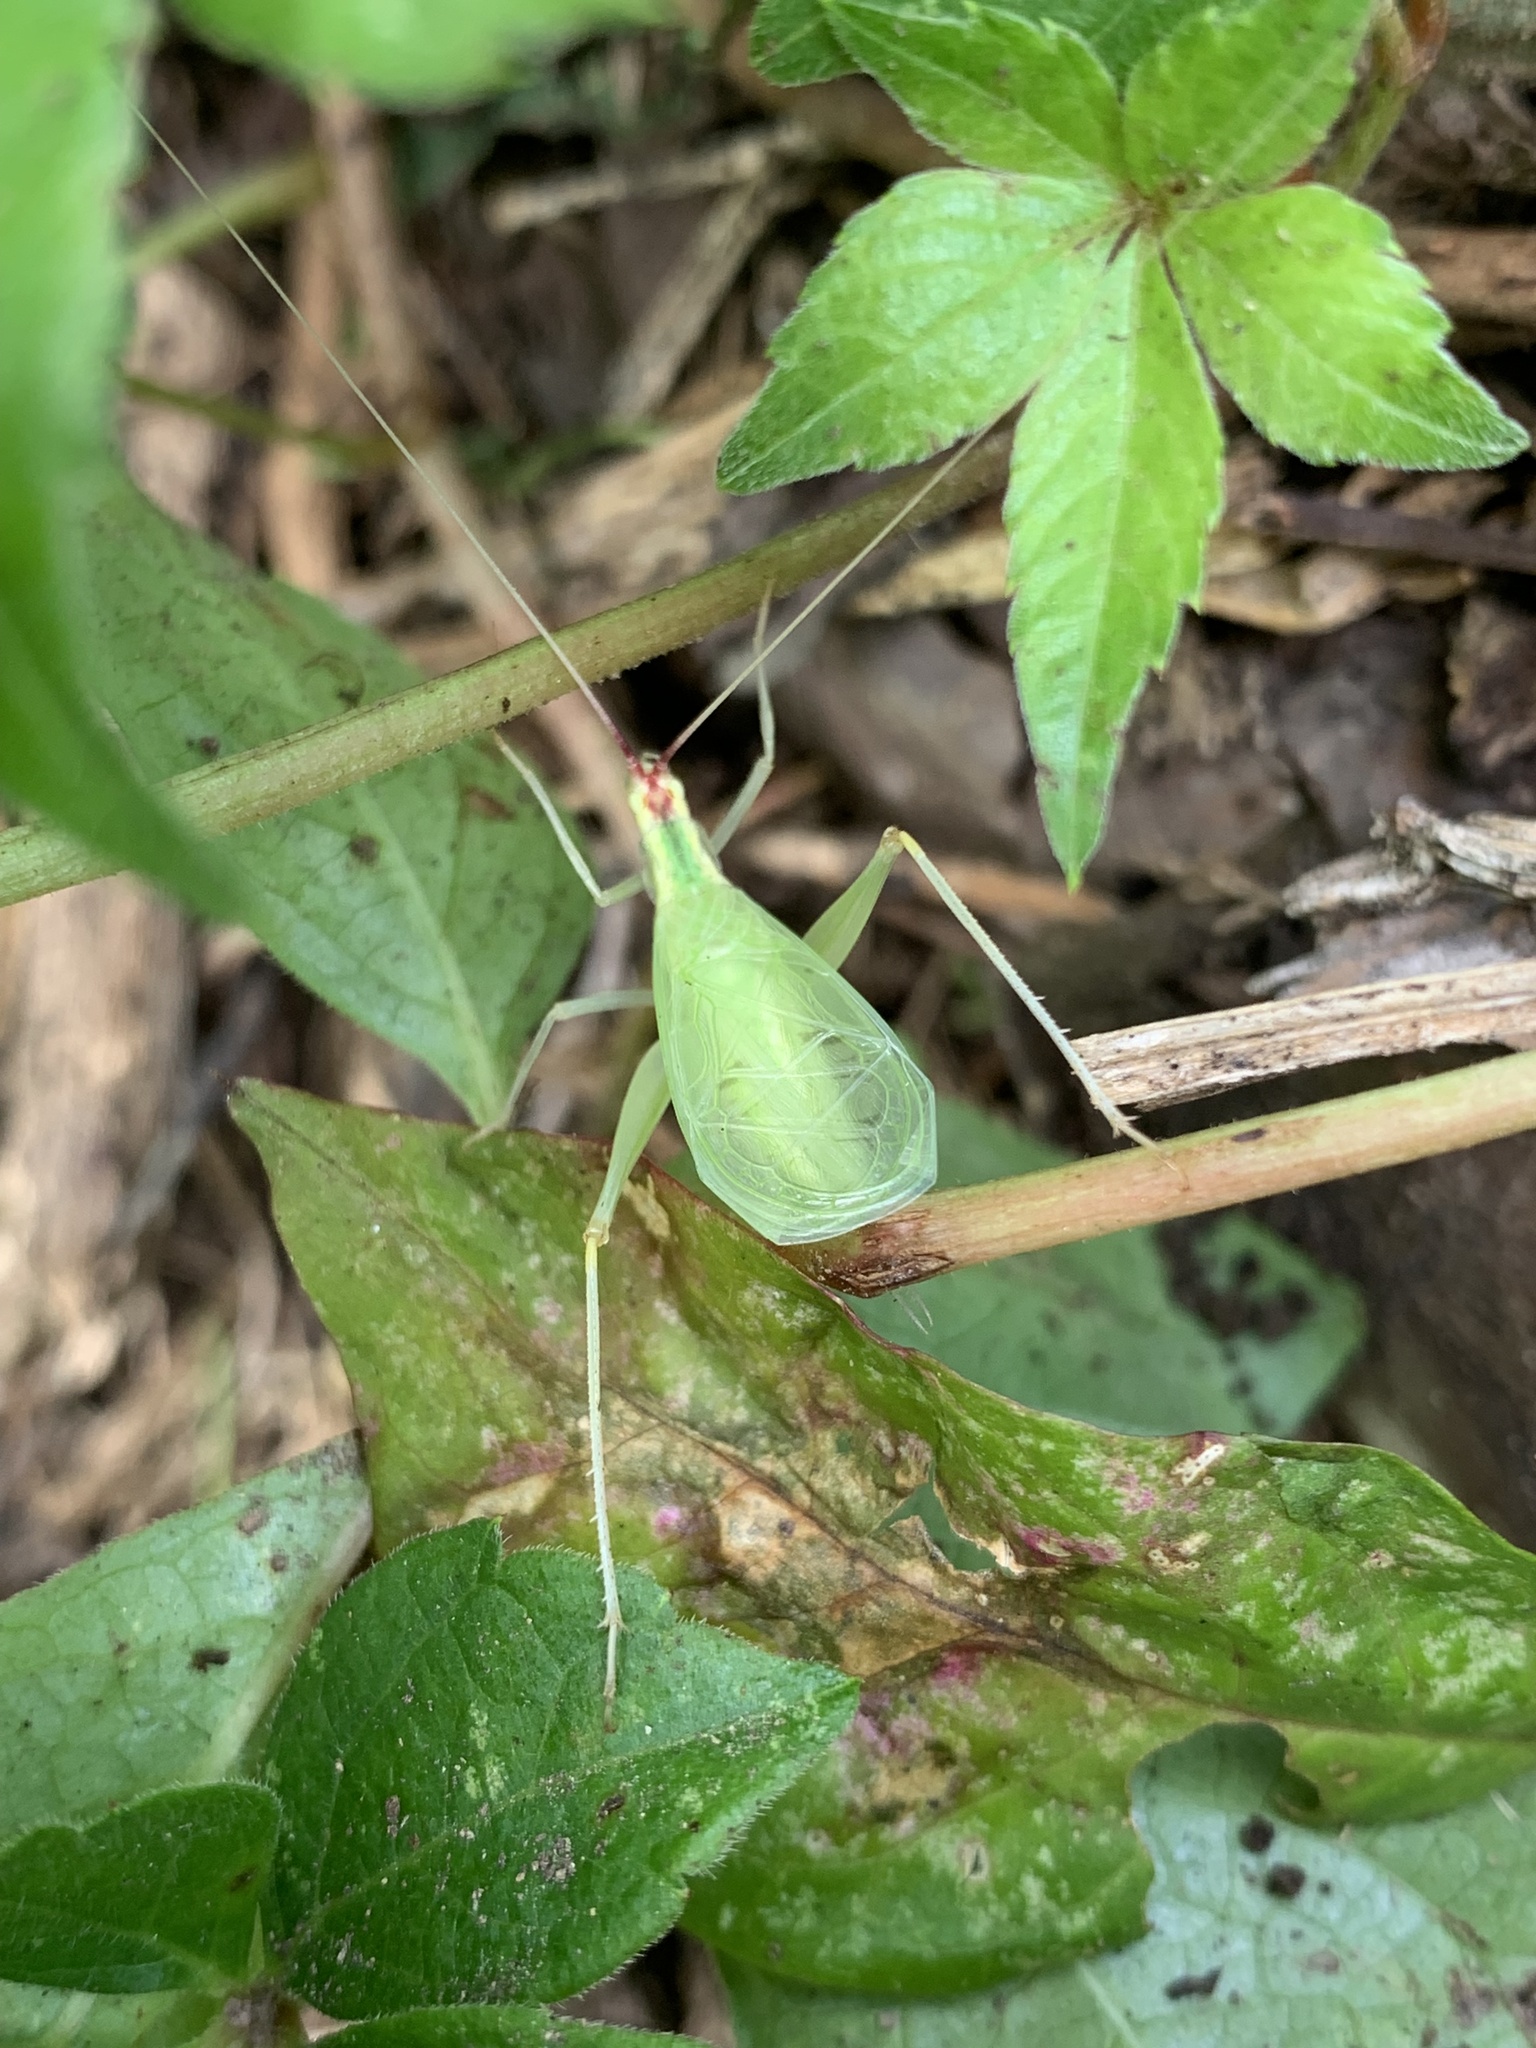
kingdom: Animalia
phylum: Arthropoda
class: Insecta
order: Orthoptera
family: Gryllidae
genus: Oecanthus
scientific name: Oecanthus latipennis
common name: Broad-winged tree cricket
